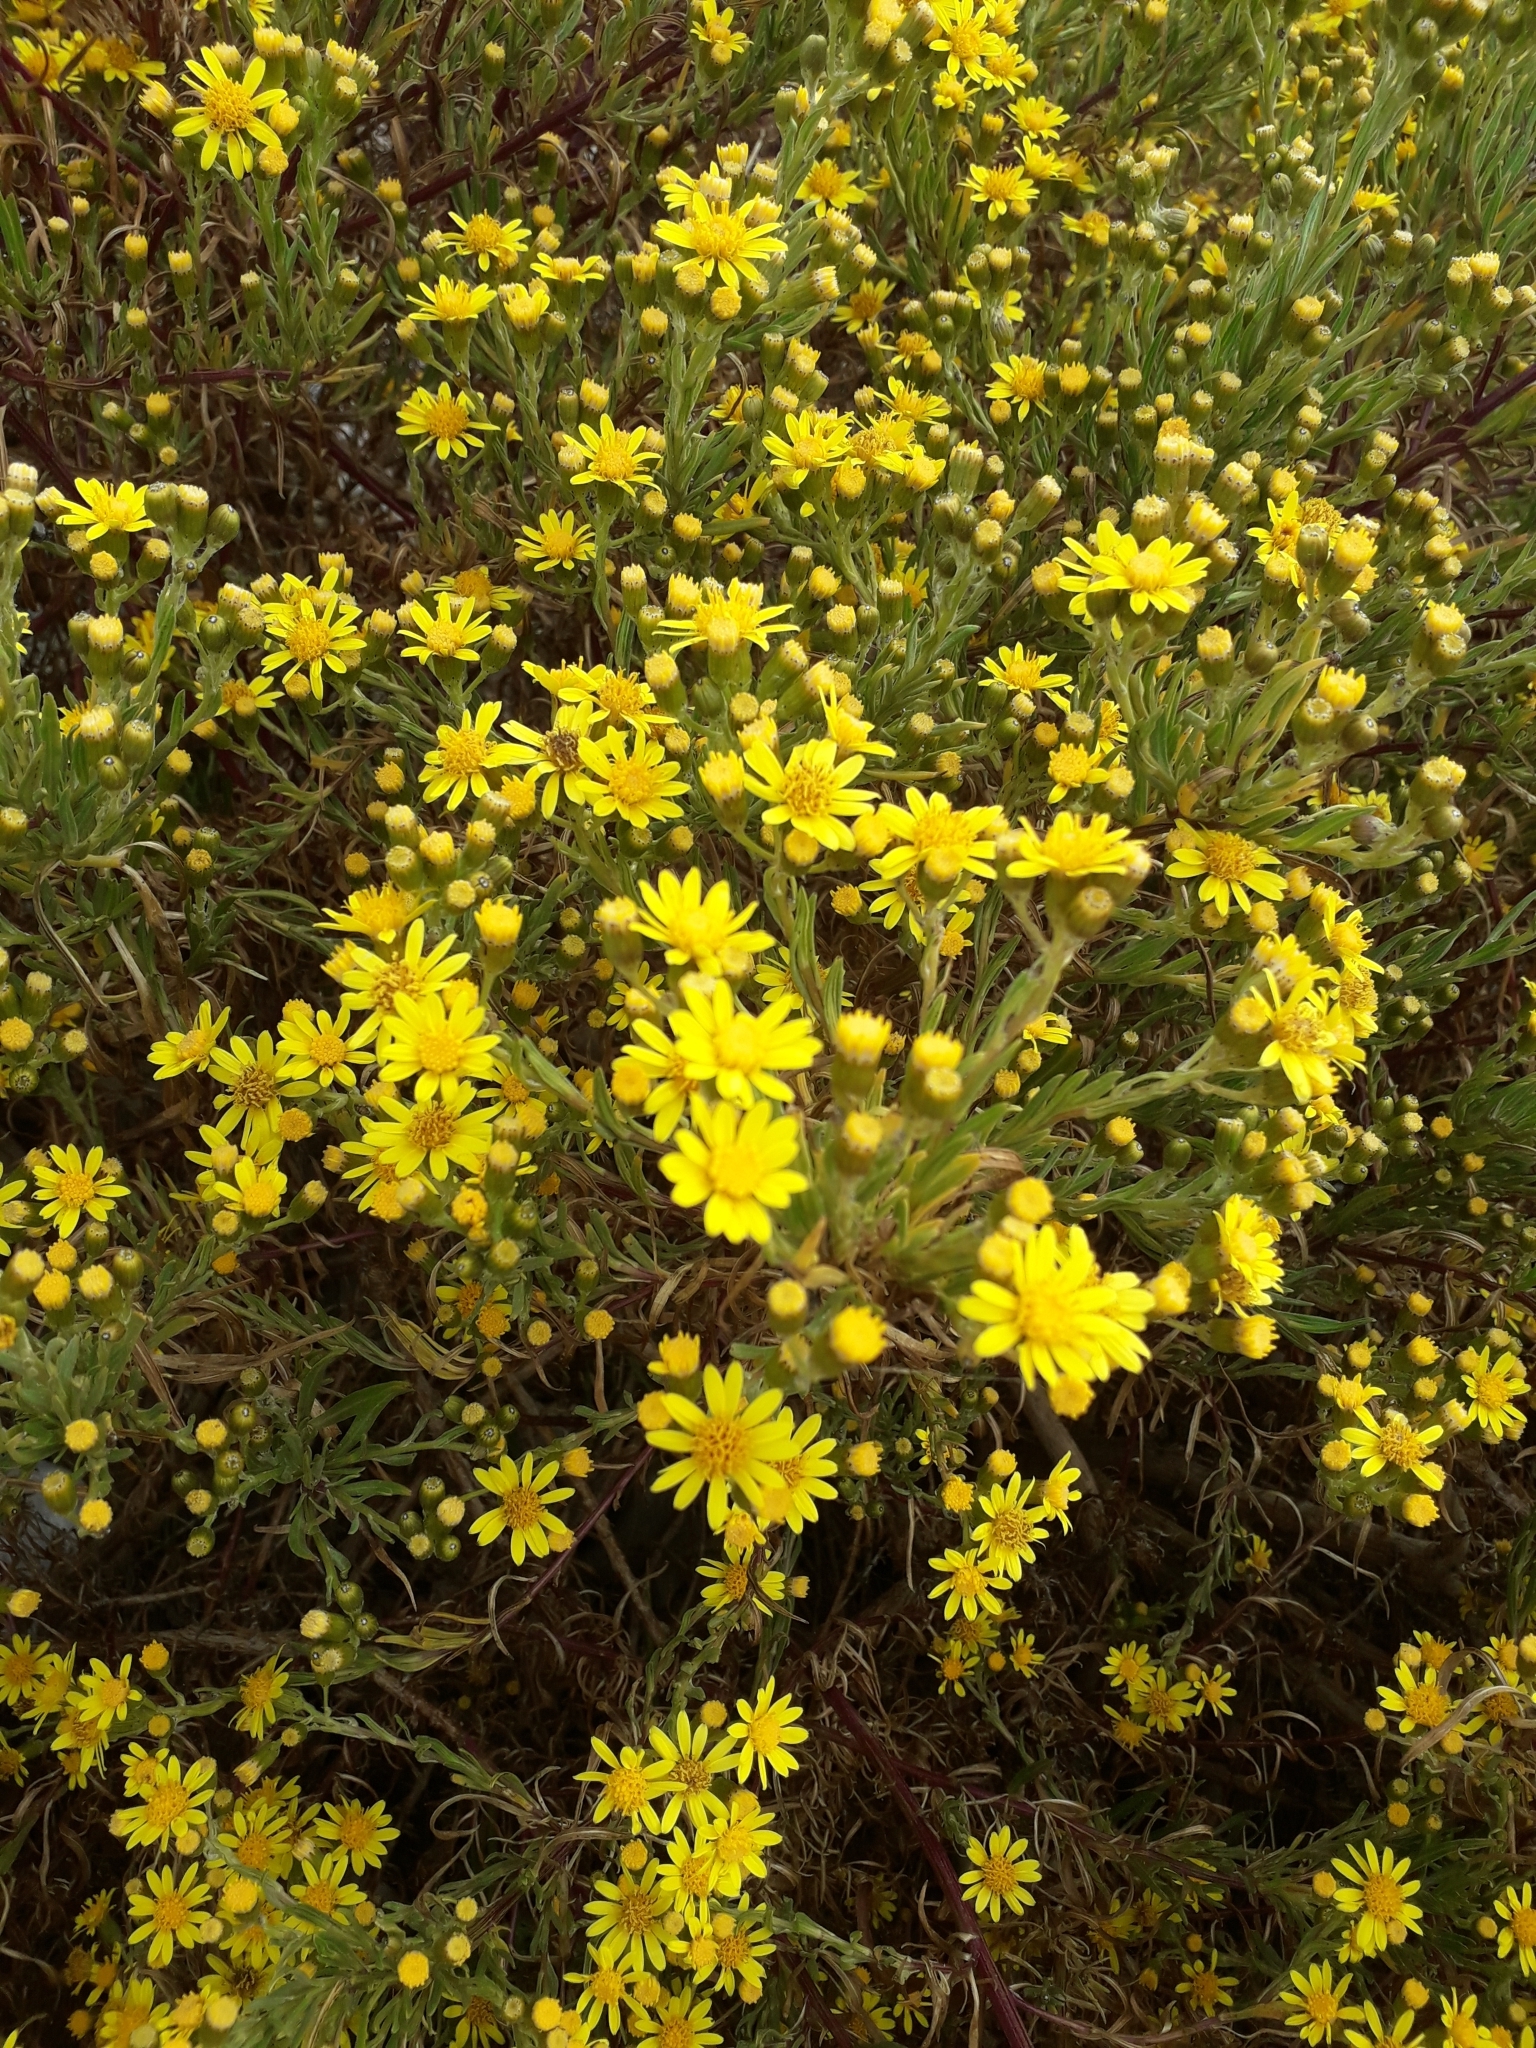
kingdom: Plantae
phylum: Tracheophyta
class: Magnoliopsida
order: Asterales
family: Asteraceae
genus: Senecio
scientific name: Senecio clivicola
